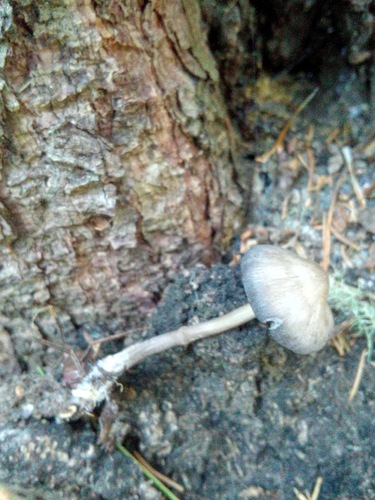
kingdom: Fungi
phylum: Basidiomycota
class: Agaricomycetes
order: Agaricales
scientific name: Agaricales
